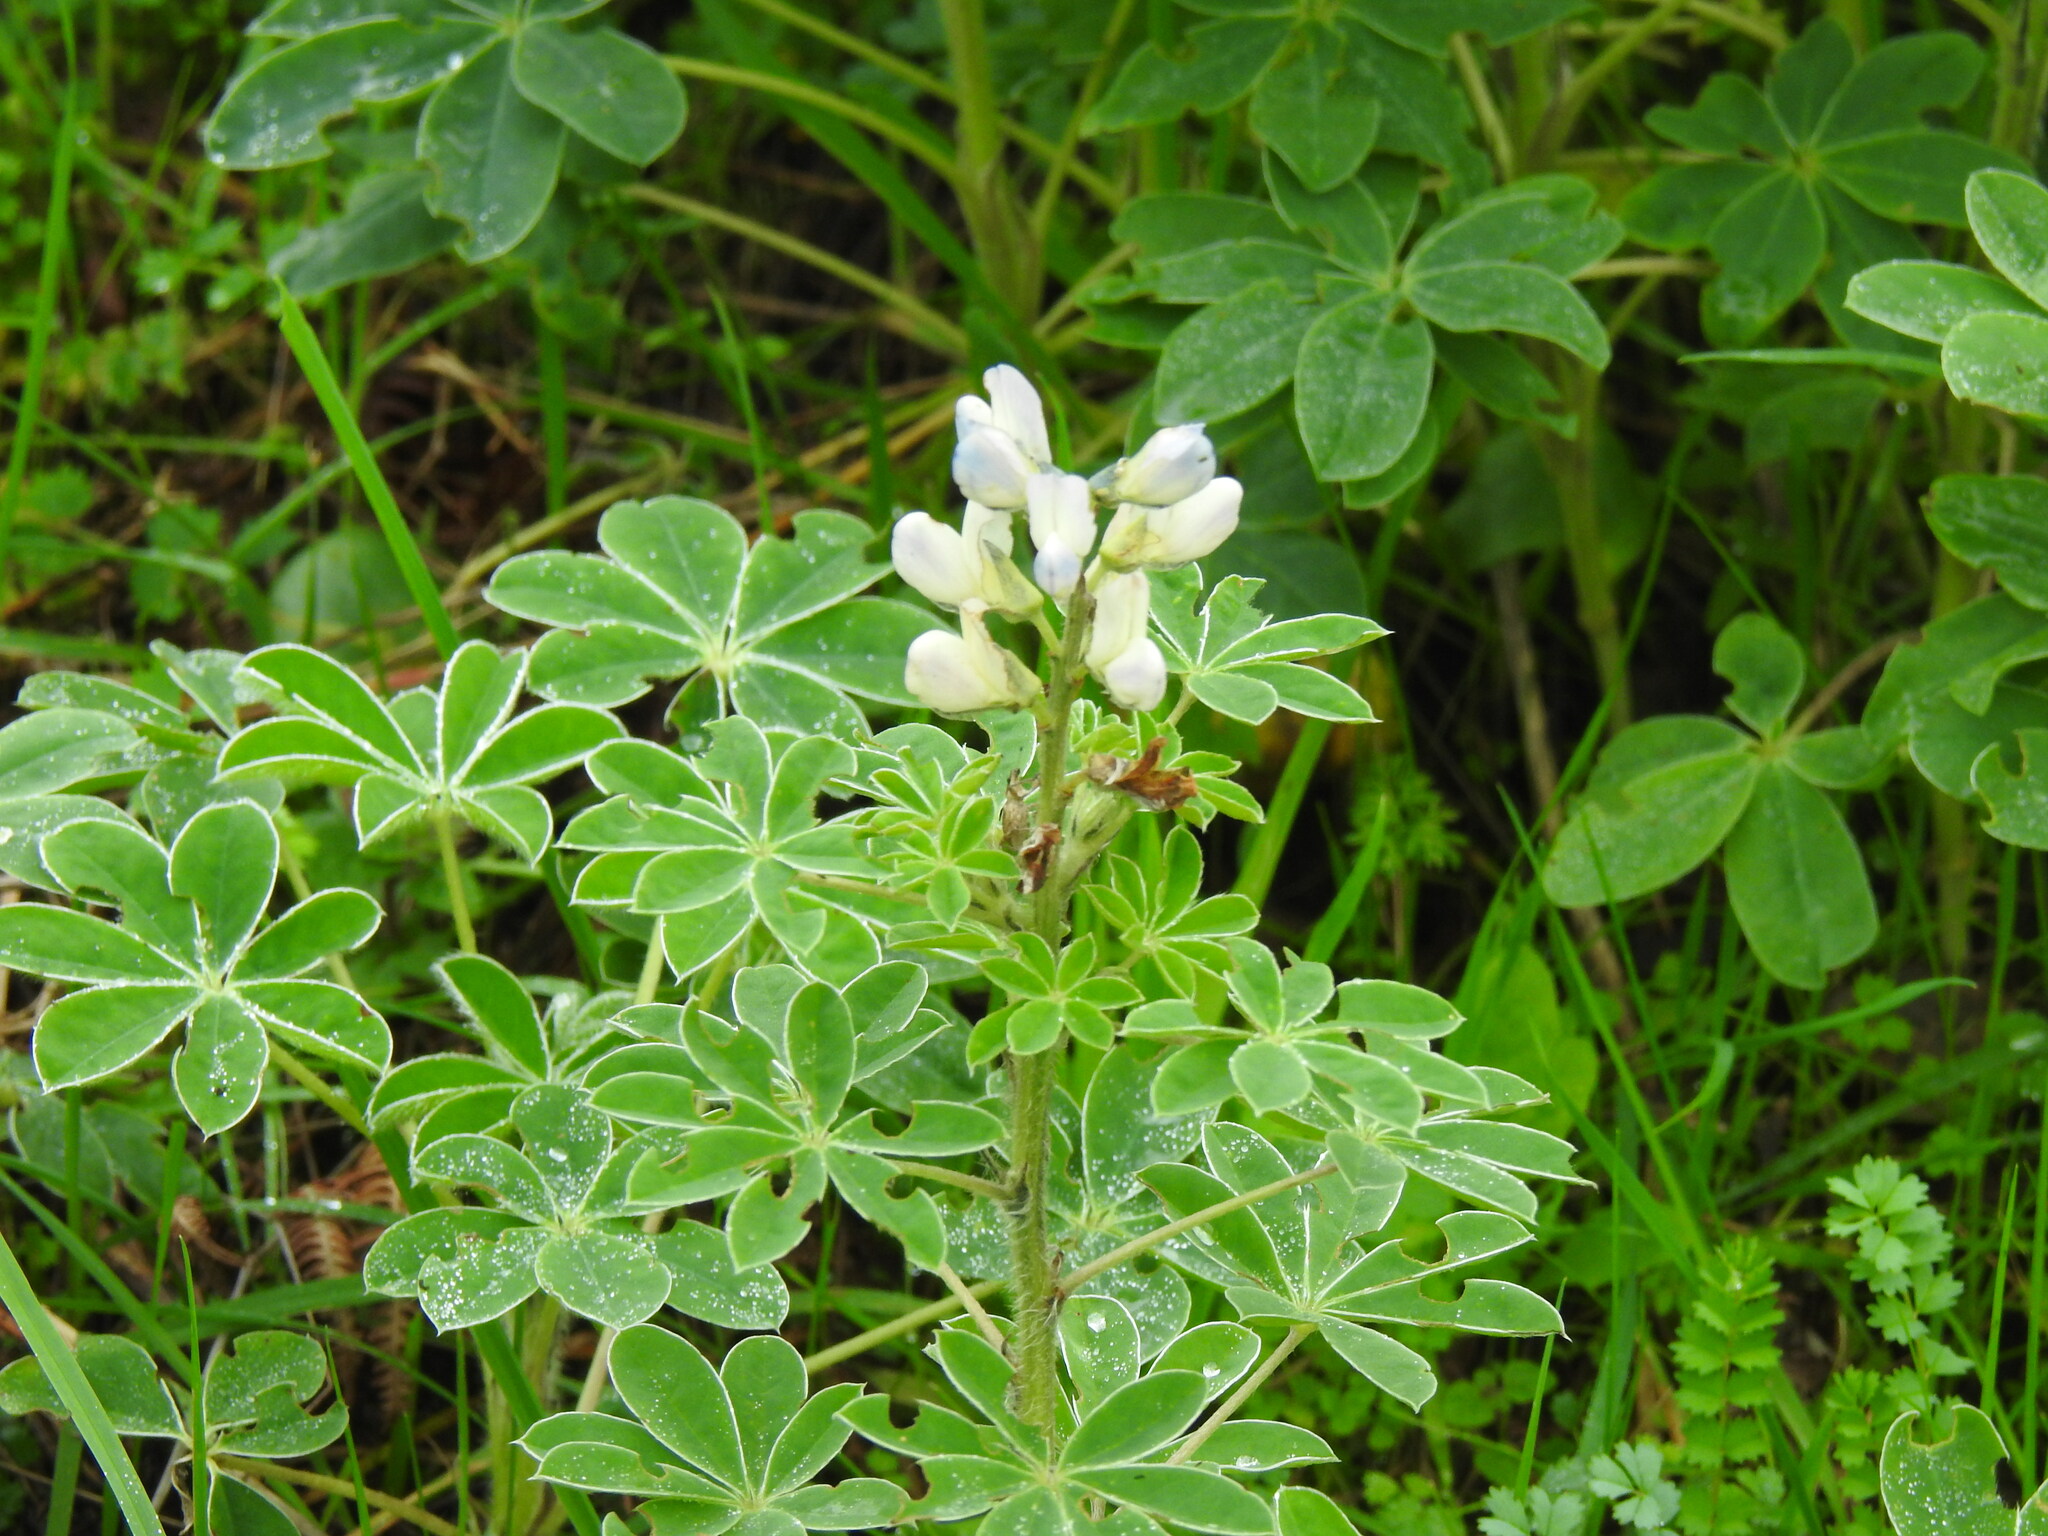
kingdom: Plantae
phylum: Tracheophyta
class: Magnoliopsida
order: Fabales
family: Fabaceae
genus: Lupinus
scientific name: Lupinus albus
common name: White lupin
